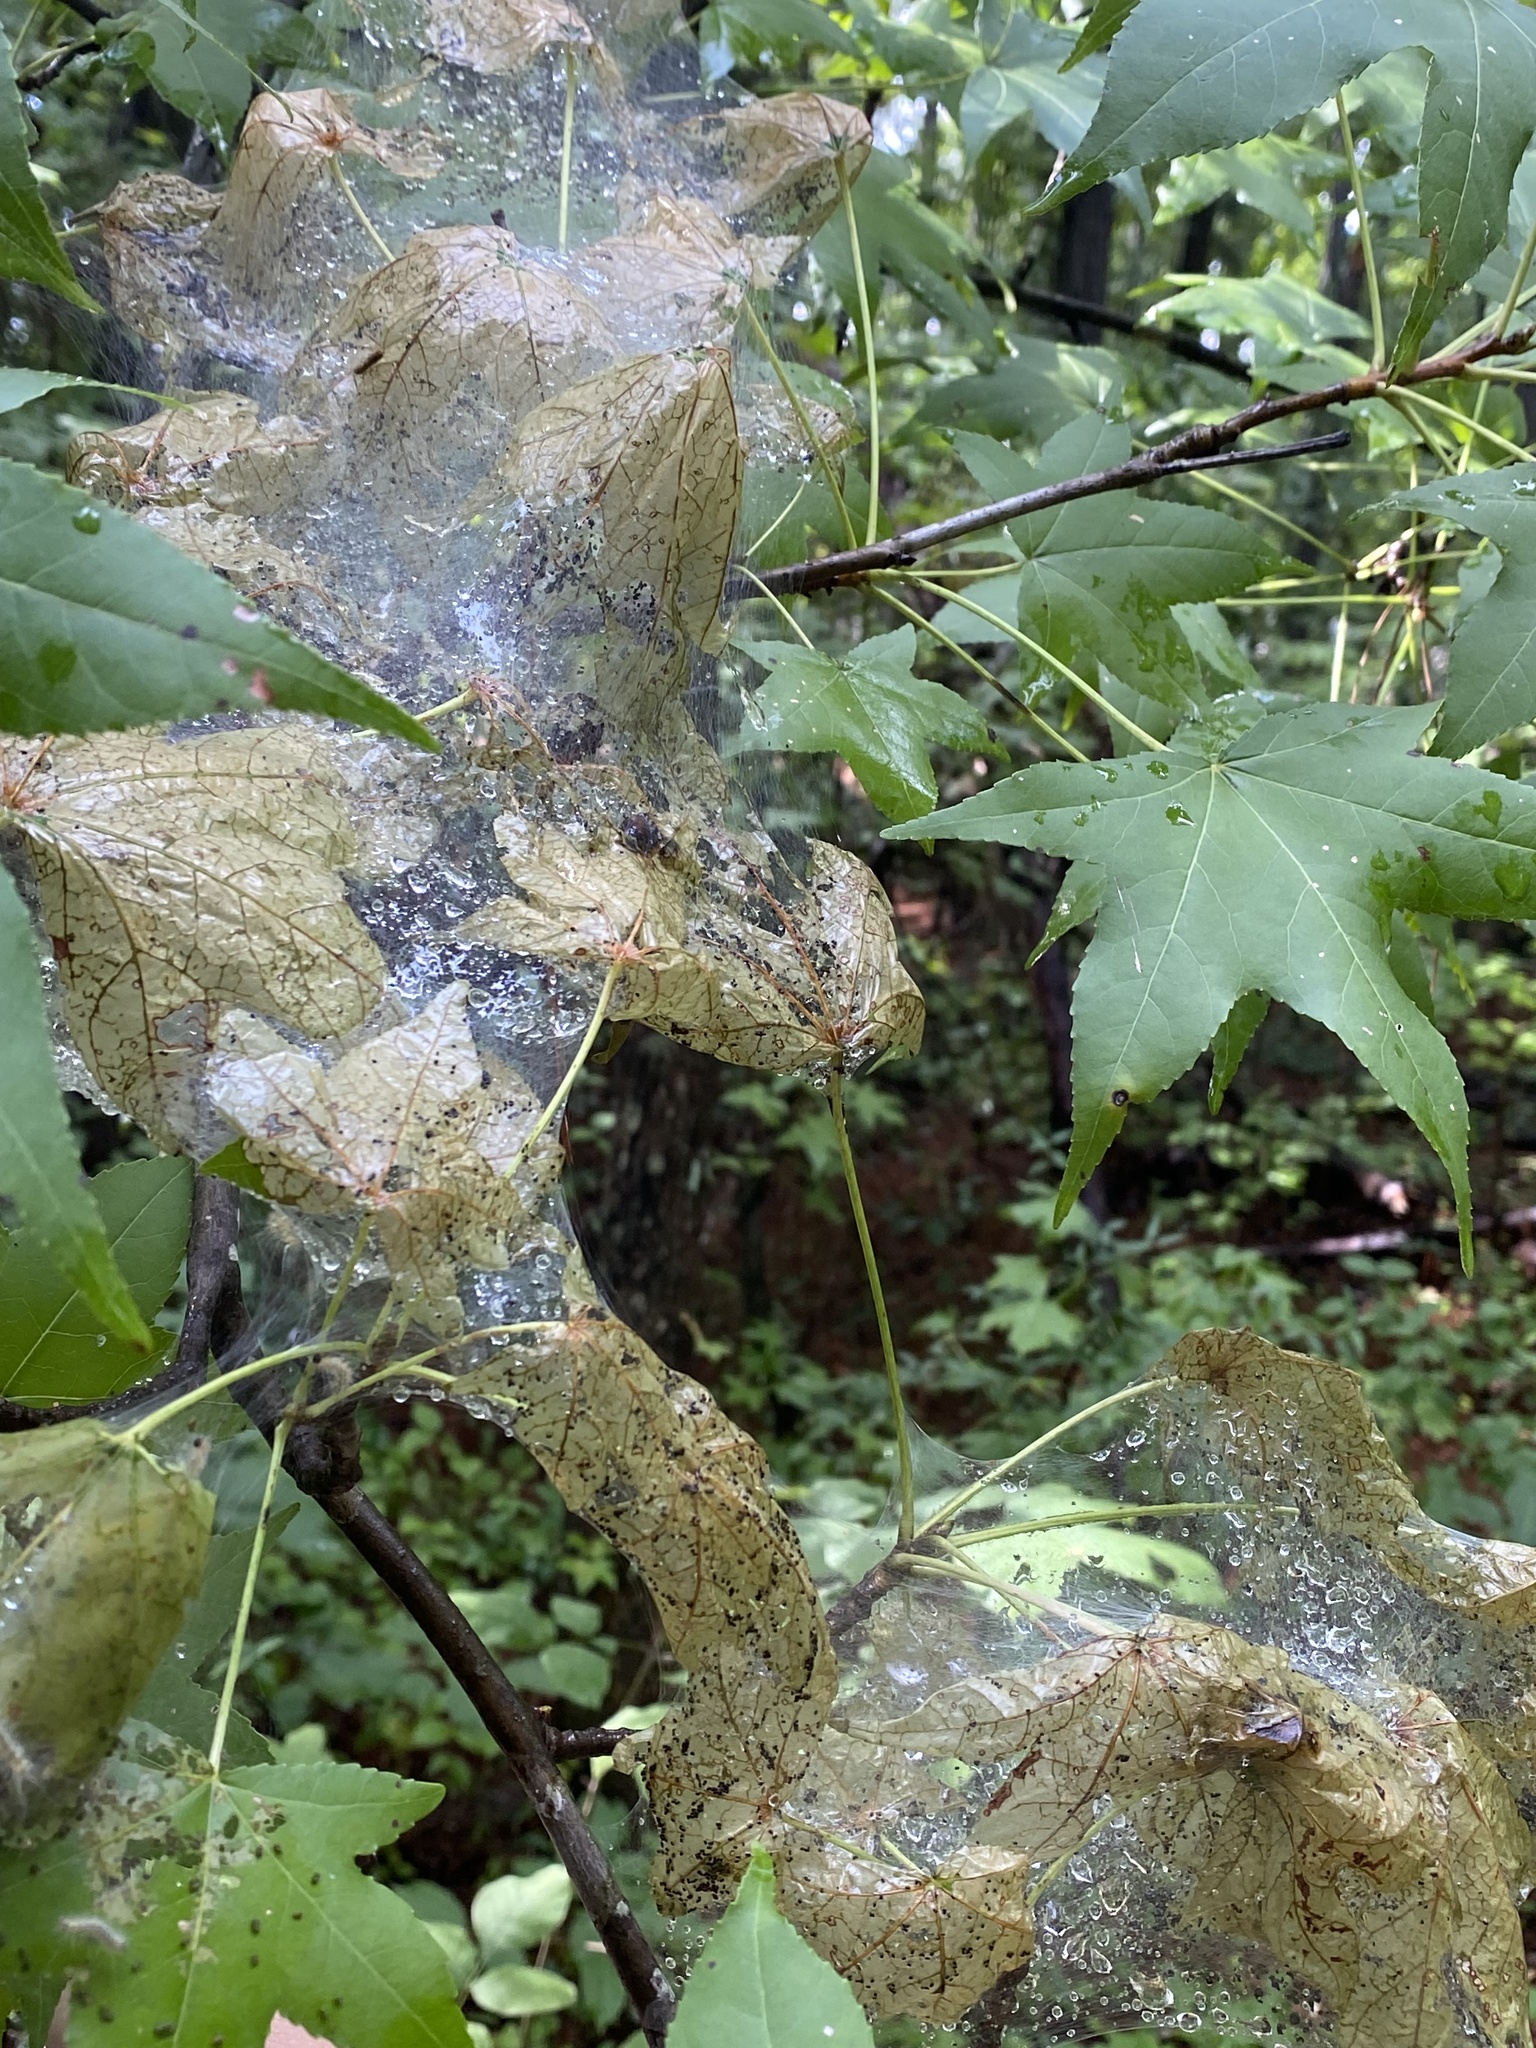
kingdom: Animalia
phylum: Arthropoda
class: Insecta
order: Lepidoptera
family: Erebidae
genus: Hyphantria
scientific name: Hyphantria cunea
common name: American white moth
